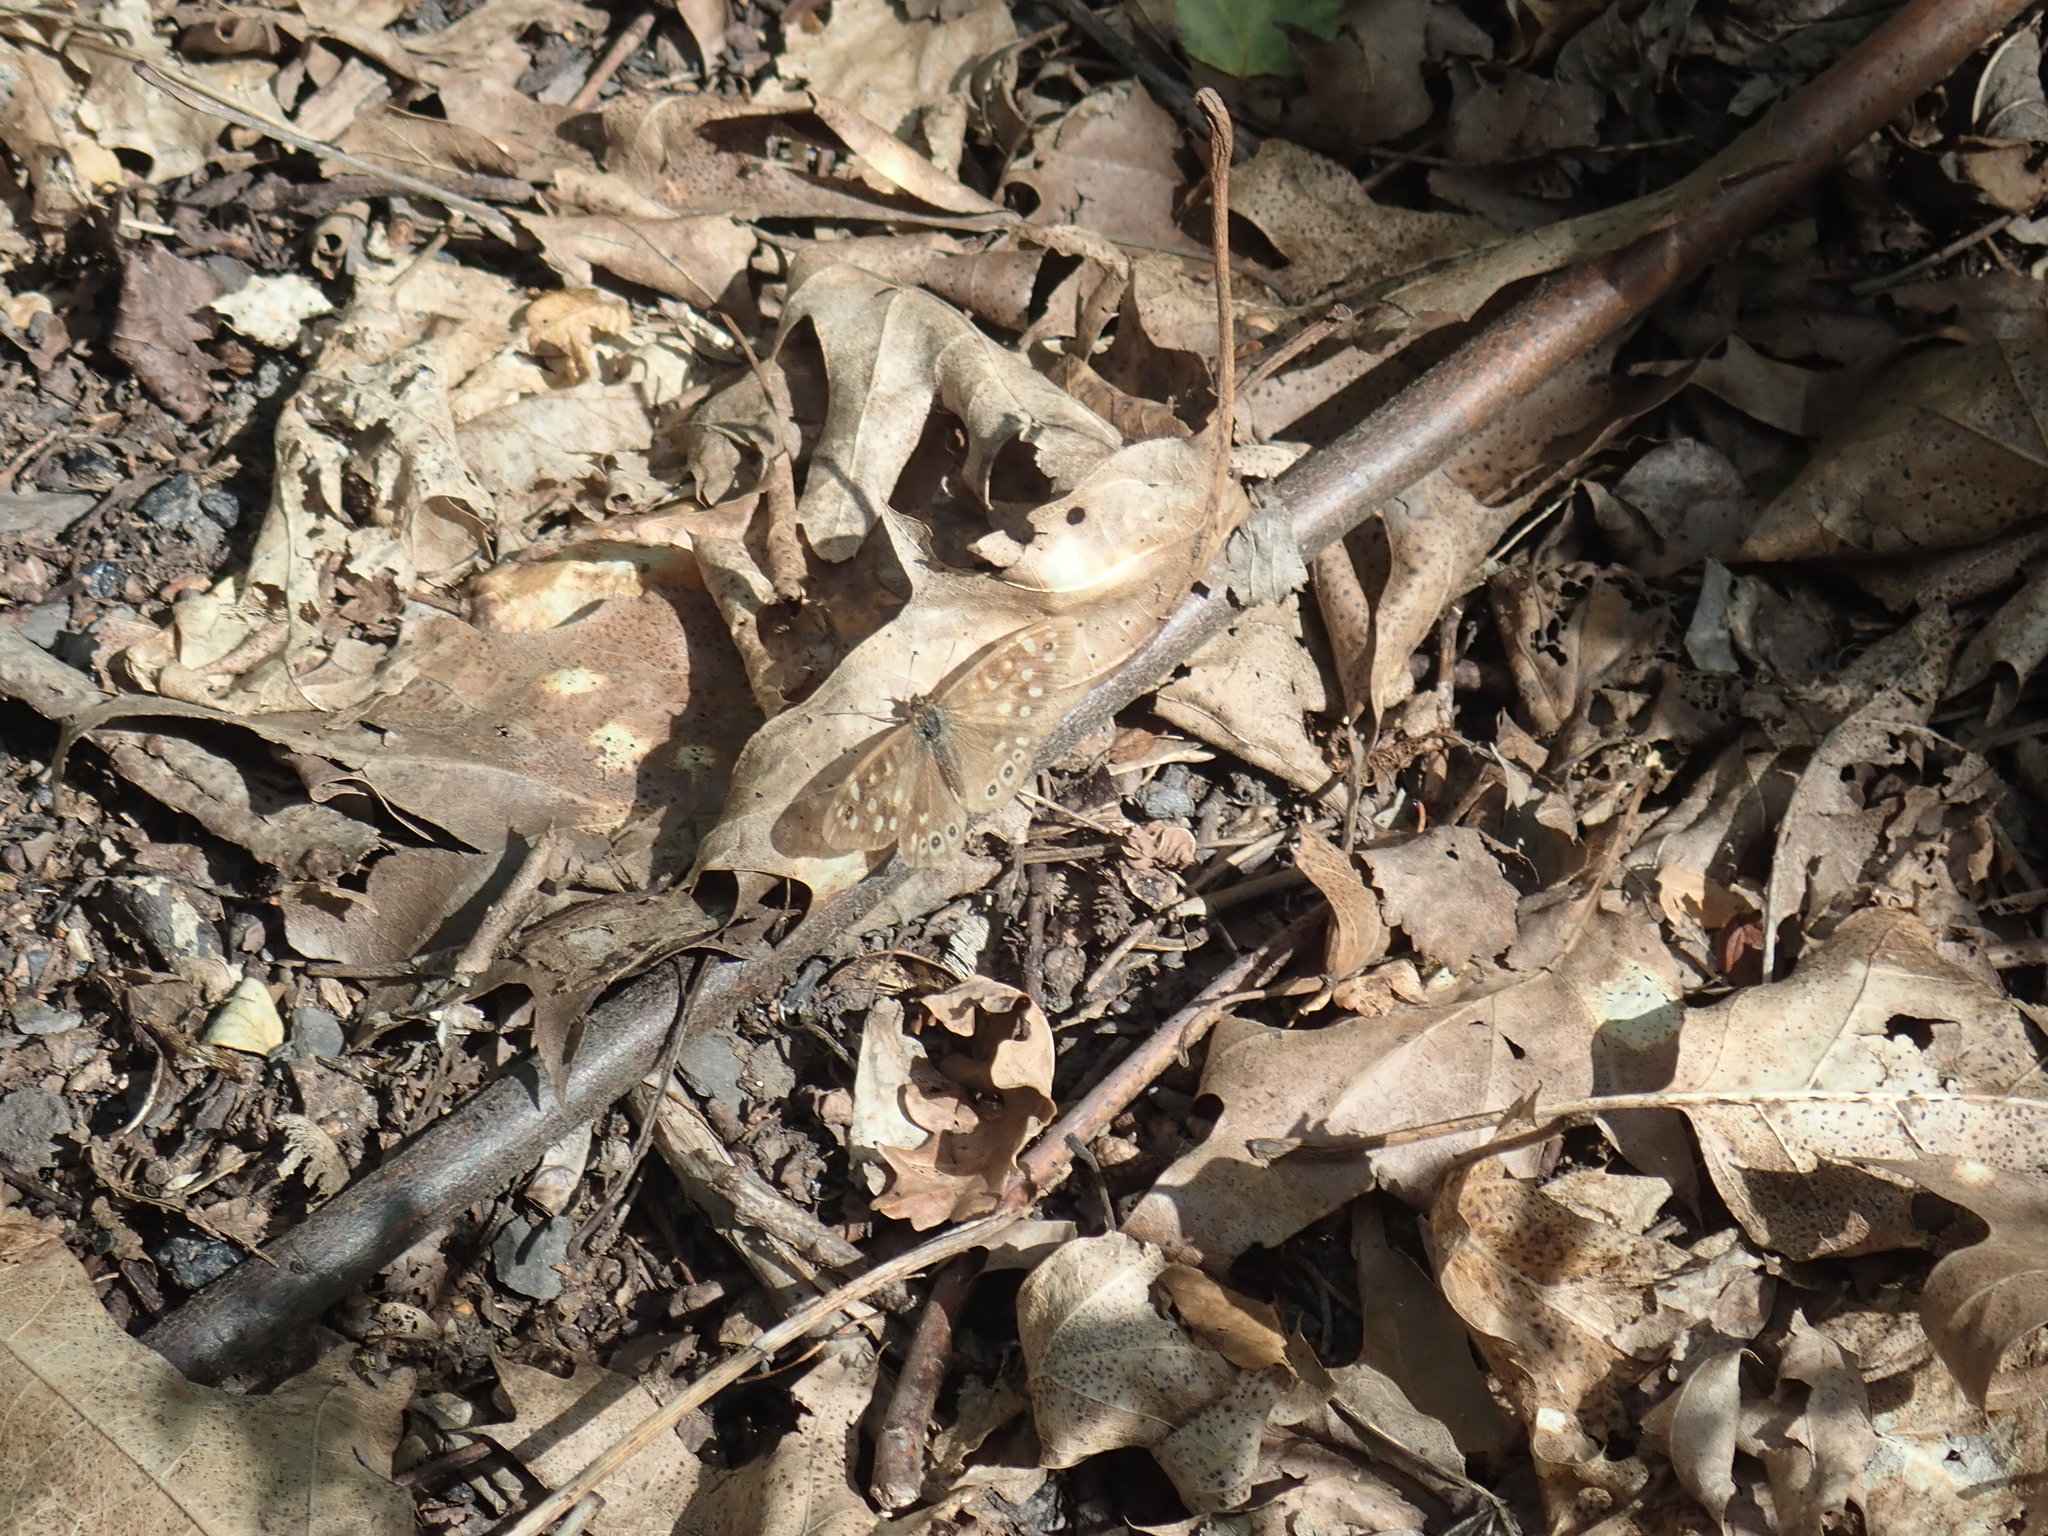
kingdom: Animalia
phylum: Arthropoda
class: Insecta
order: Lepidoptera
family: Nymphalidae
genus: Pararge
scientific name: Pararge aegeria
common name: Speckled wood
